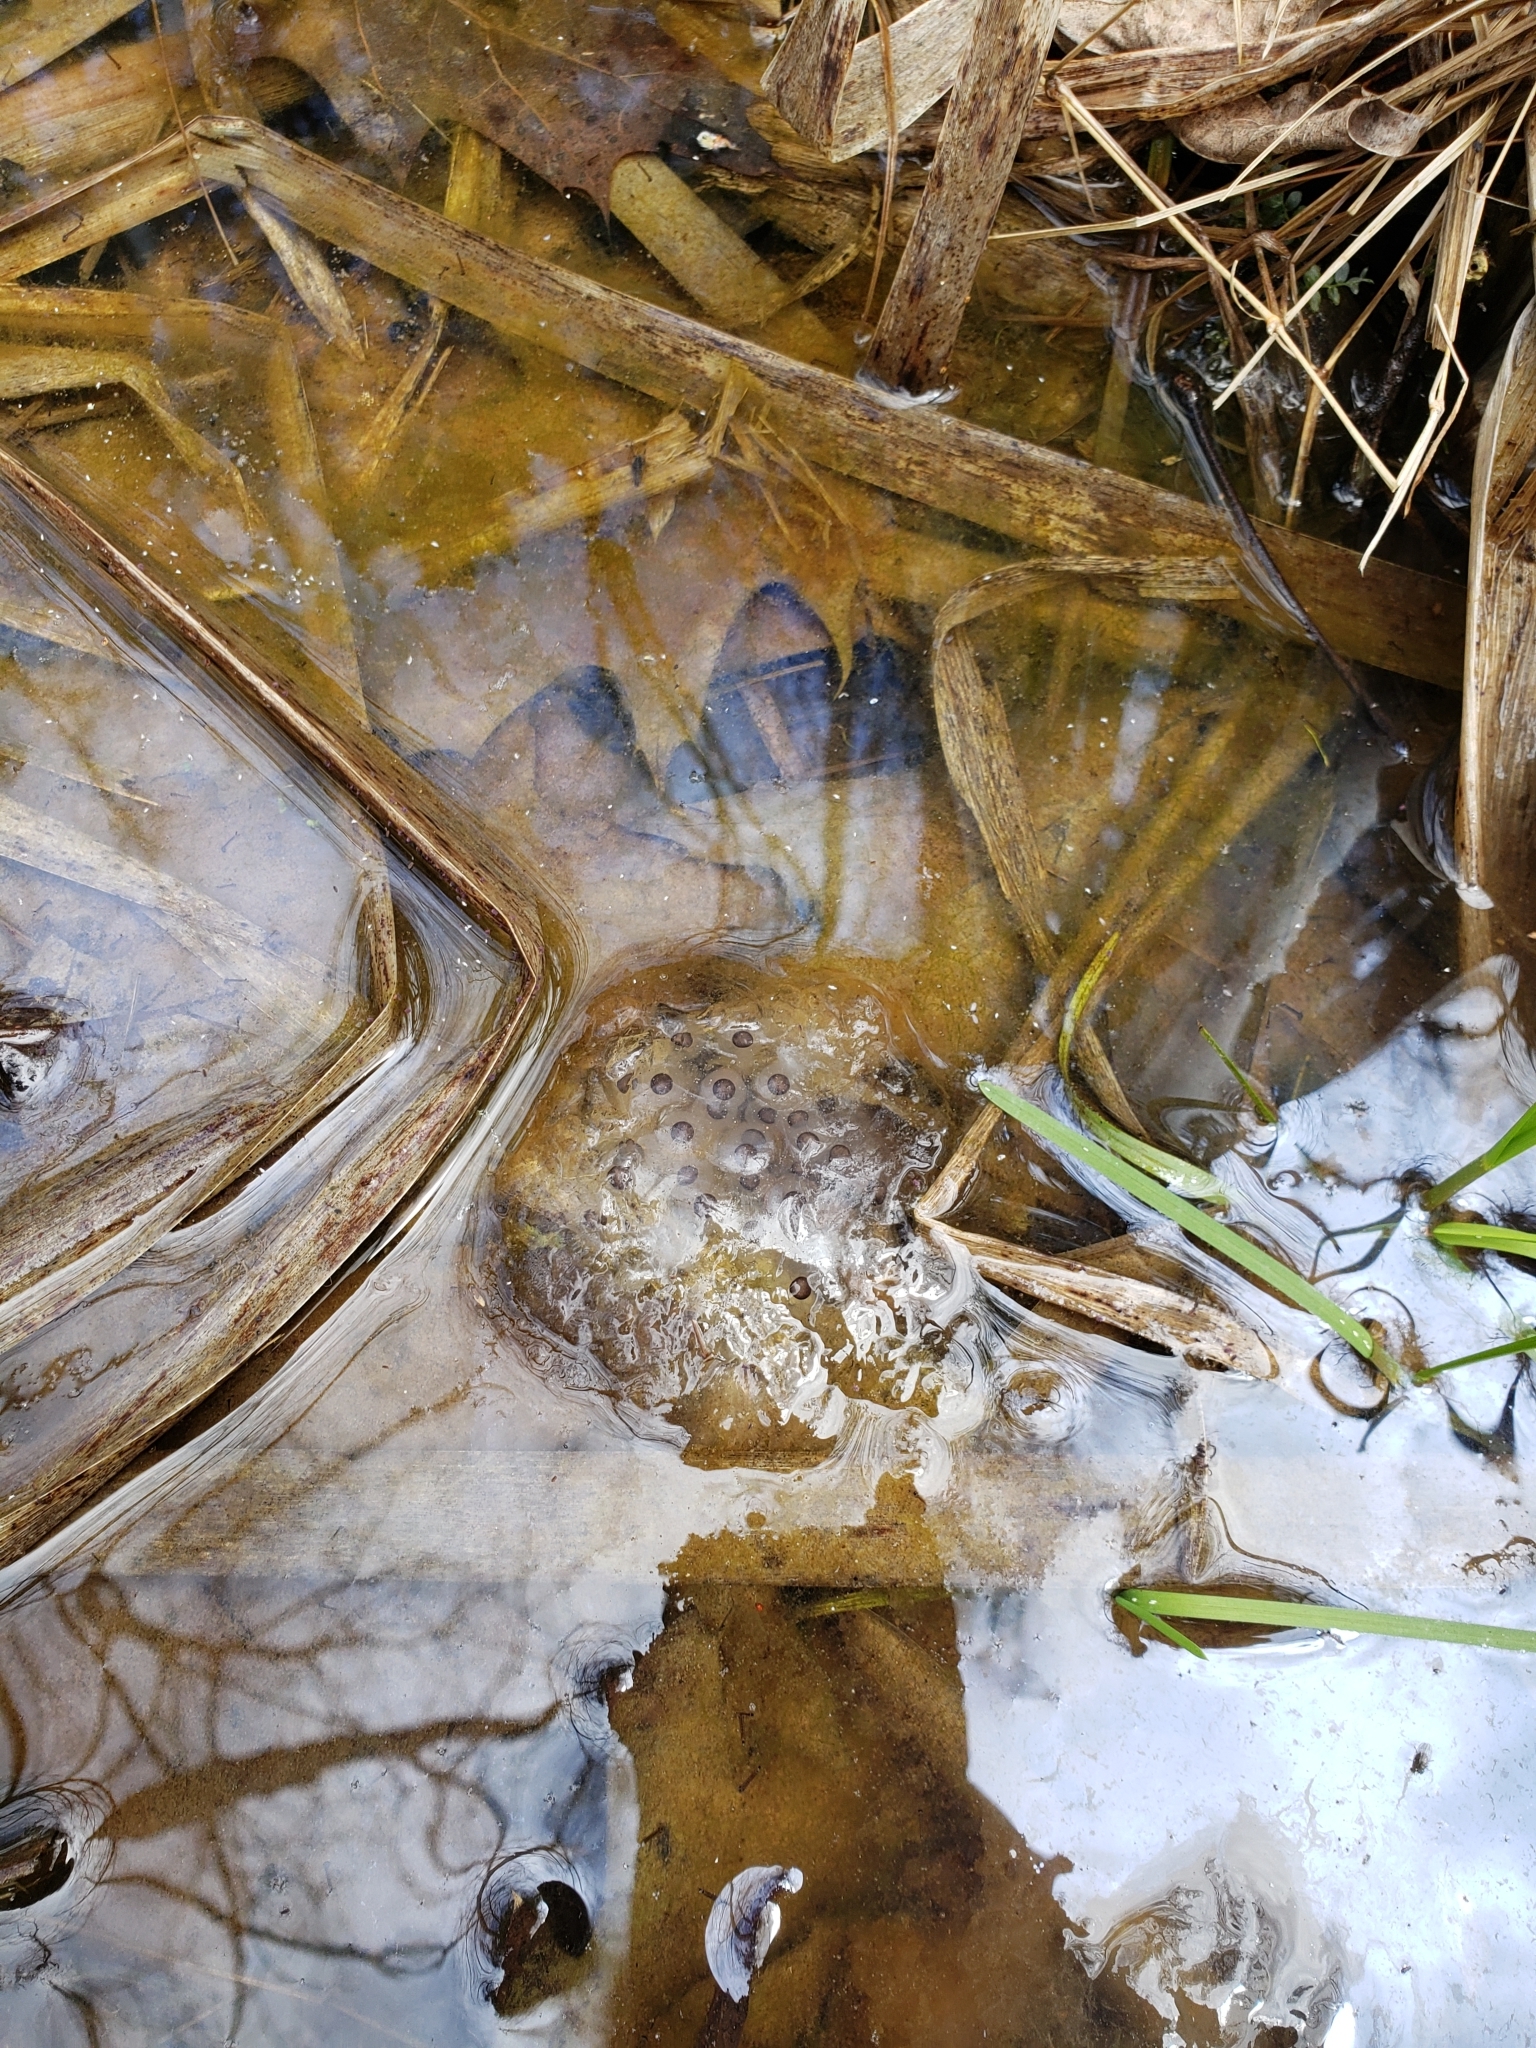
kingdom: Animalia
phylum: Chordata
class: Amphibia
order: Caudata
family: Ambystomatidae
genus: Ambystoma
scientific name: Ambystoma maculatum
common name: Spotted salamander
